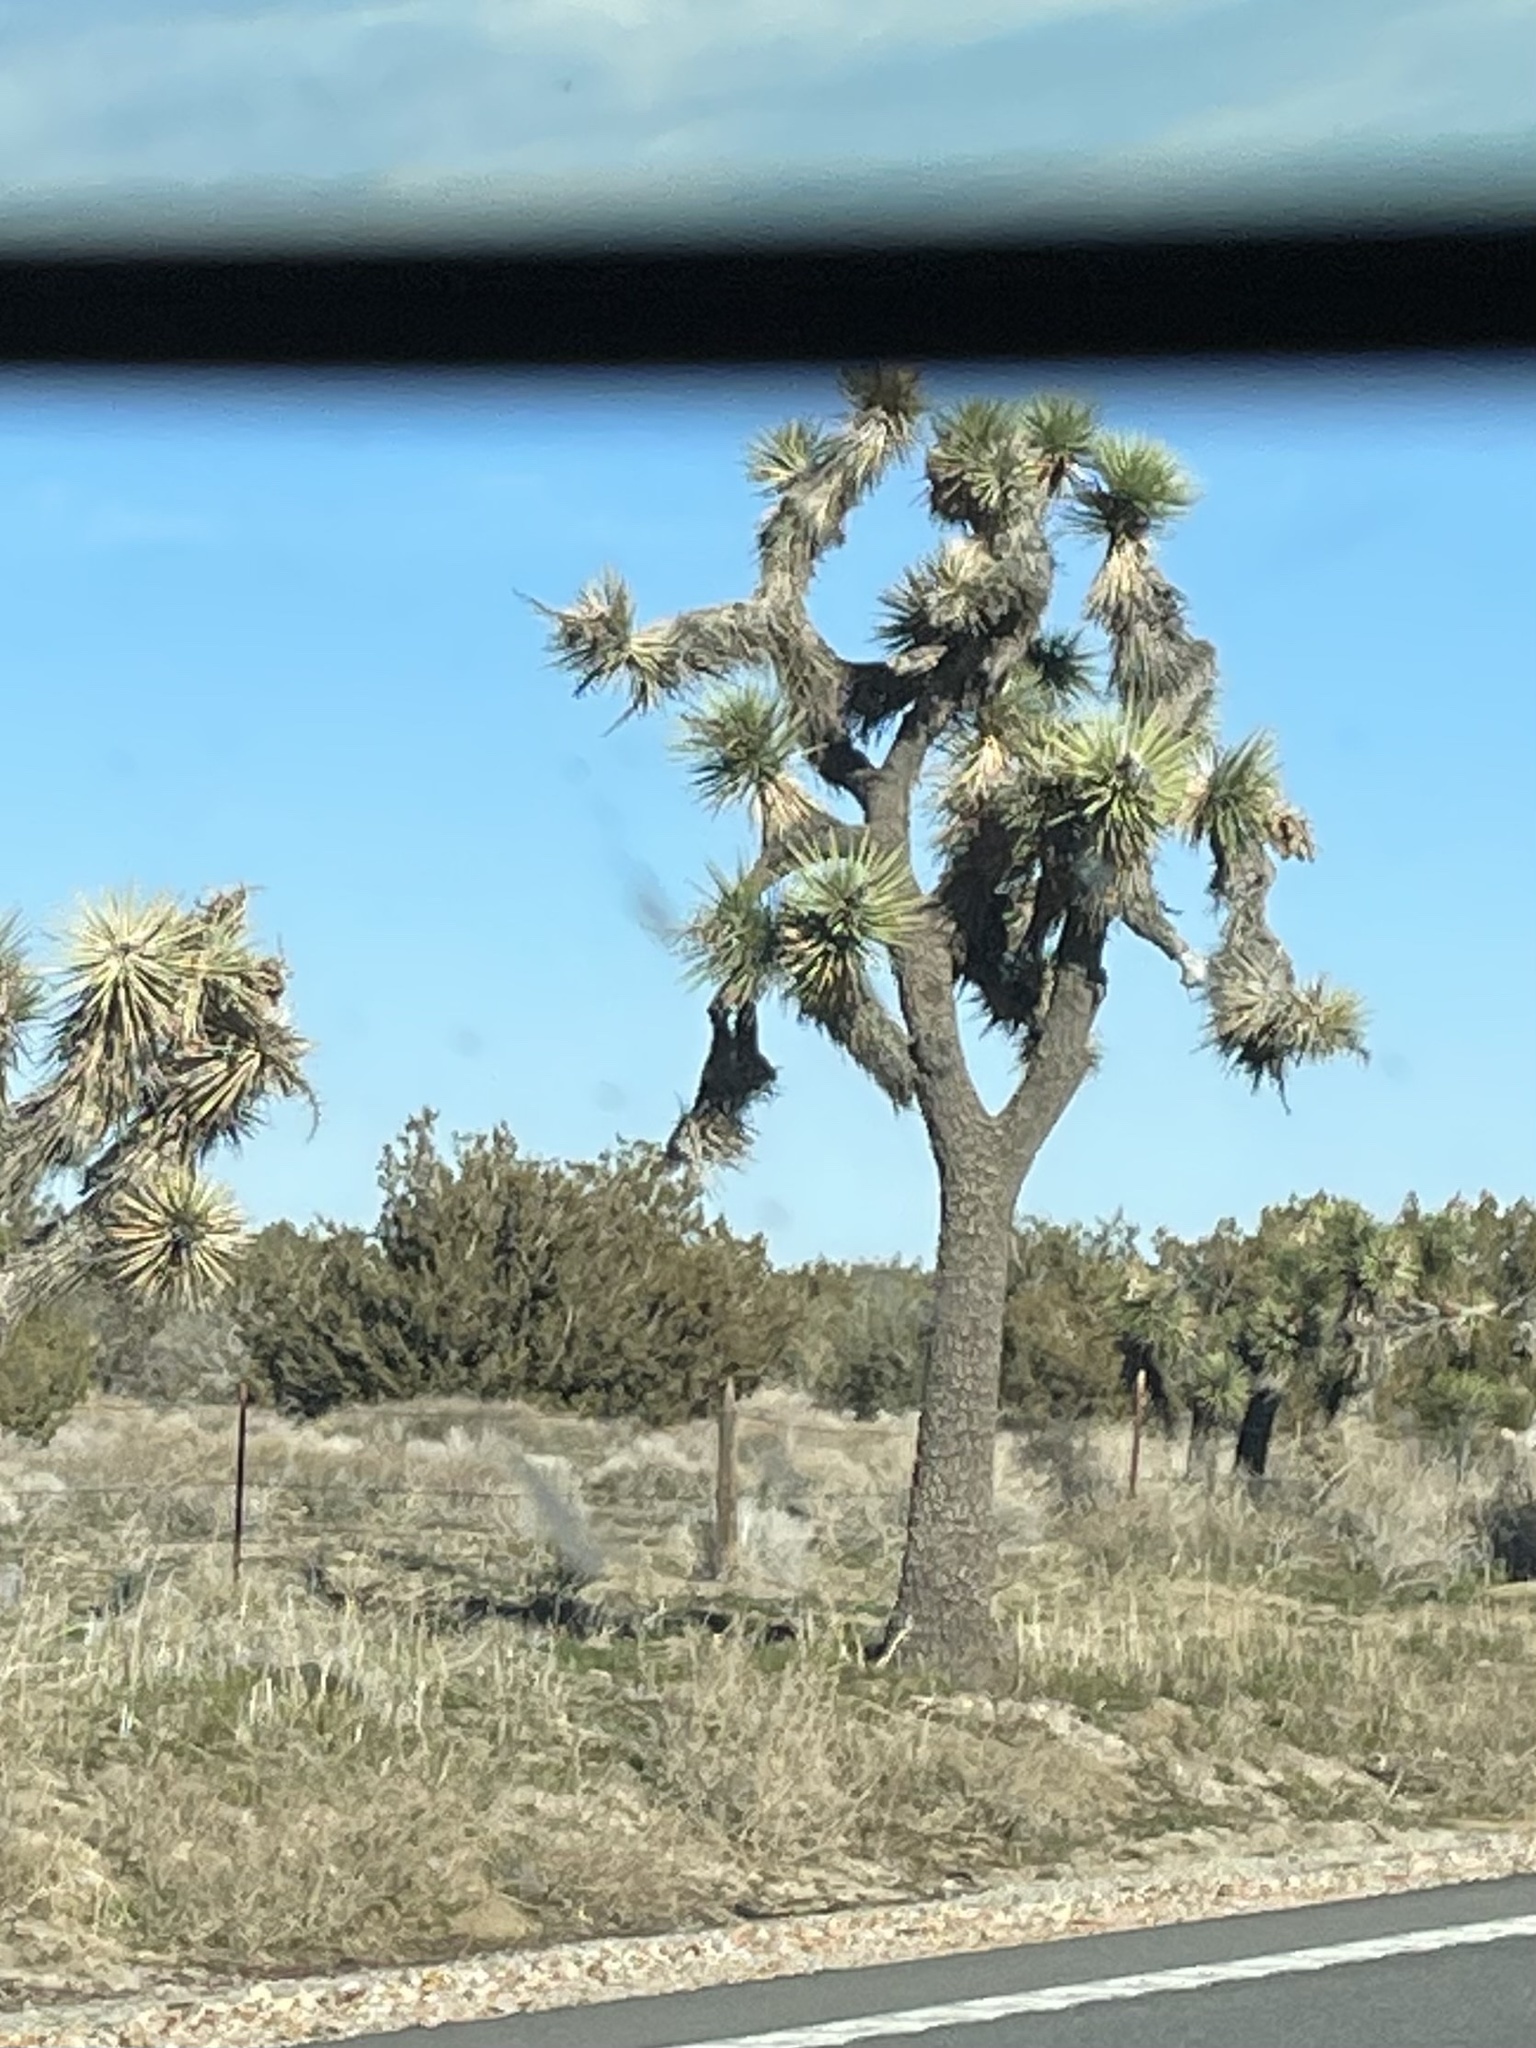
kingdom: Plantae
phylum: Tracheophyta
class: Liliopsida
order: Asparagales
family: Asparagaceae
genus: Yucca
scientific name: Yucca brevifolia
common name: Joshua tree
